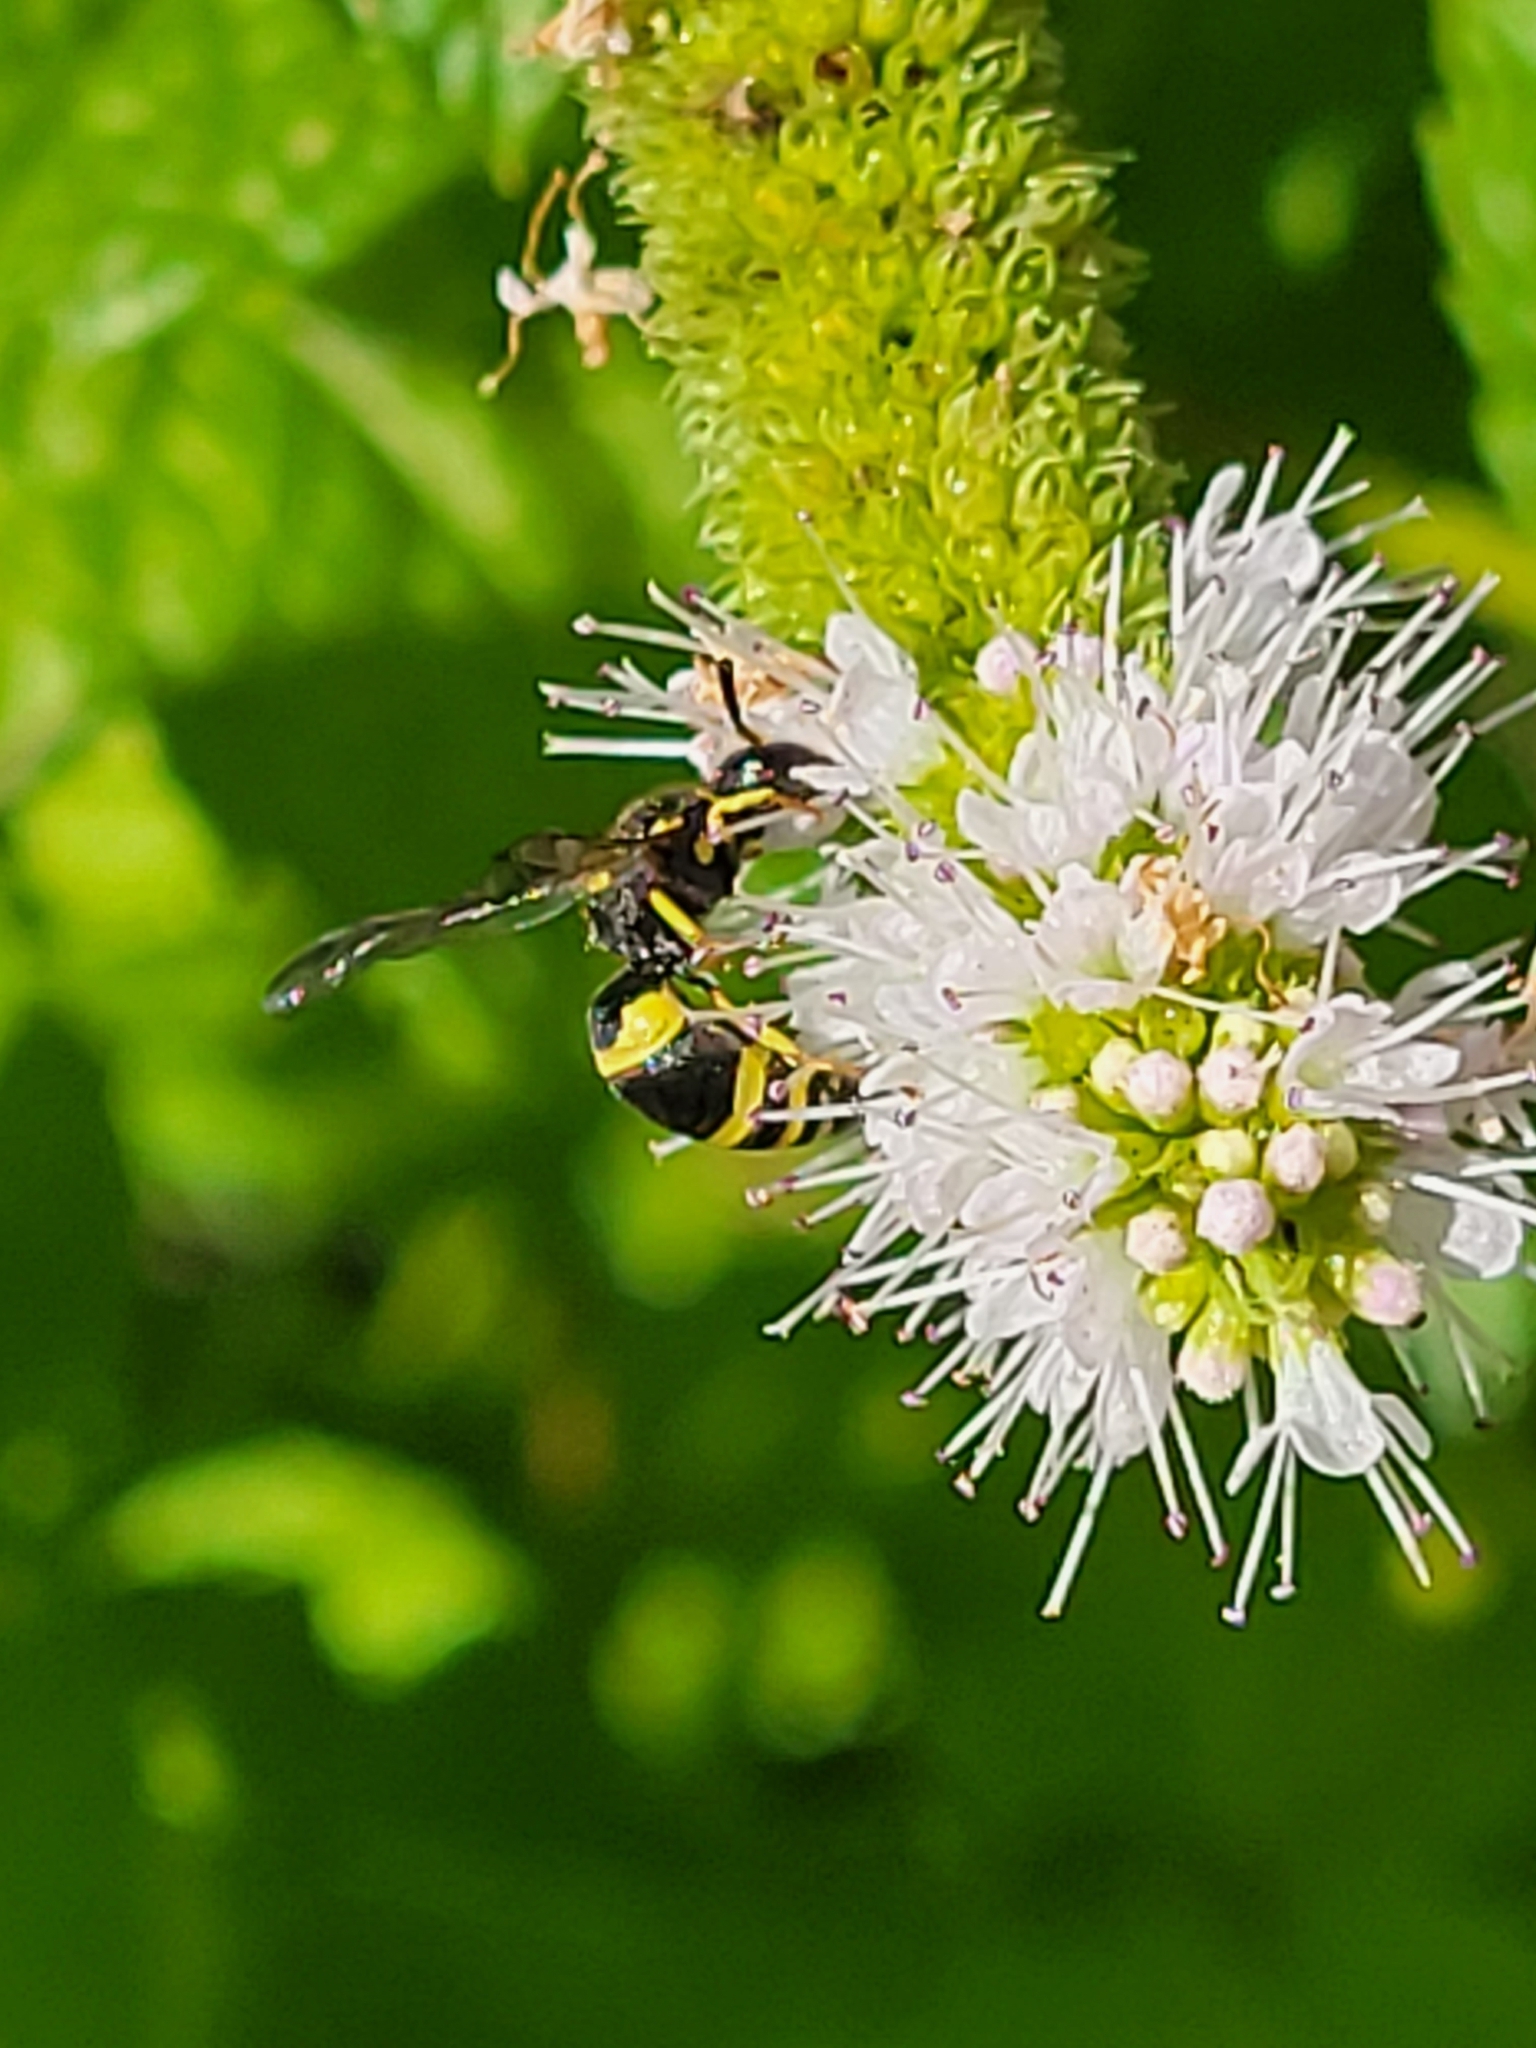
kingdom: Animalia
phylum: Arthropoda
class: Insecta
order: Hymenoptera
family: Vespidae
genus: Ancistrocerus
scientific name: Ancistrocerus gazella
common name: European tube wasp
